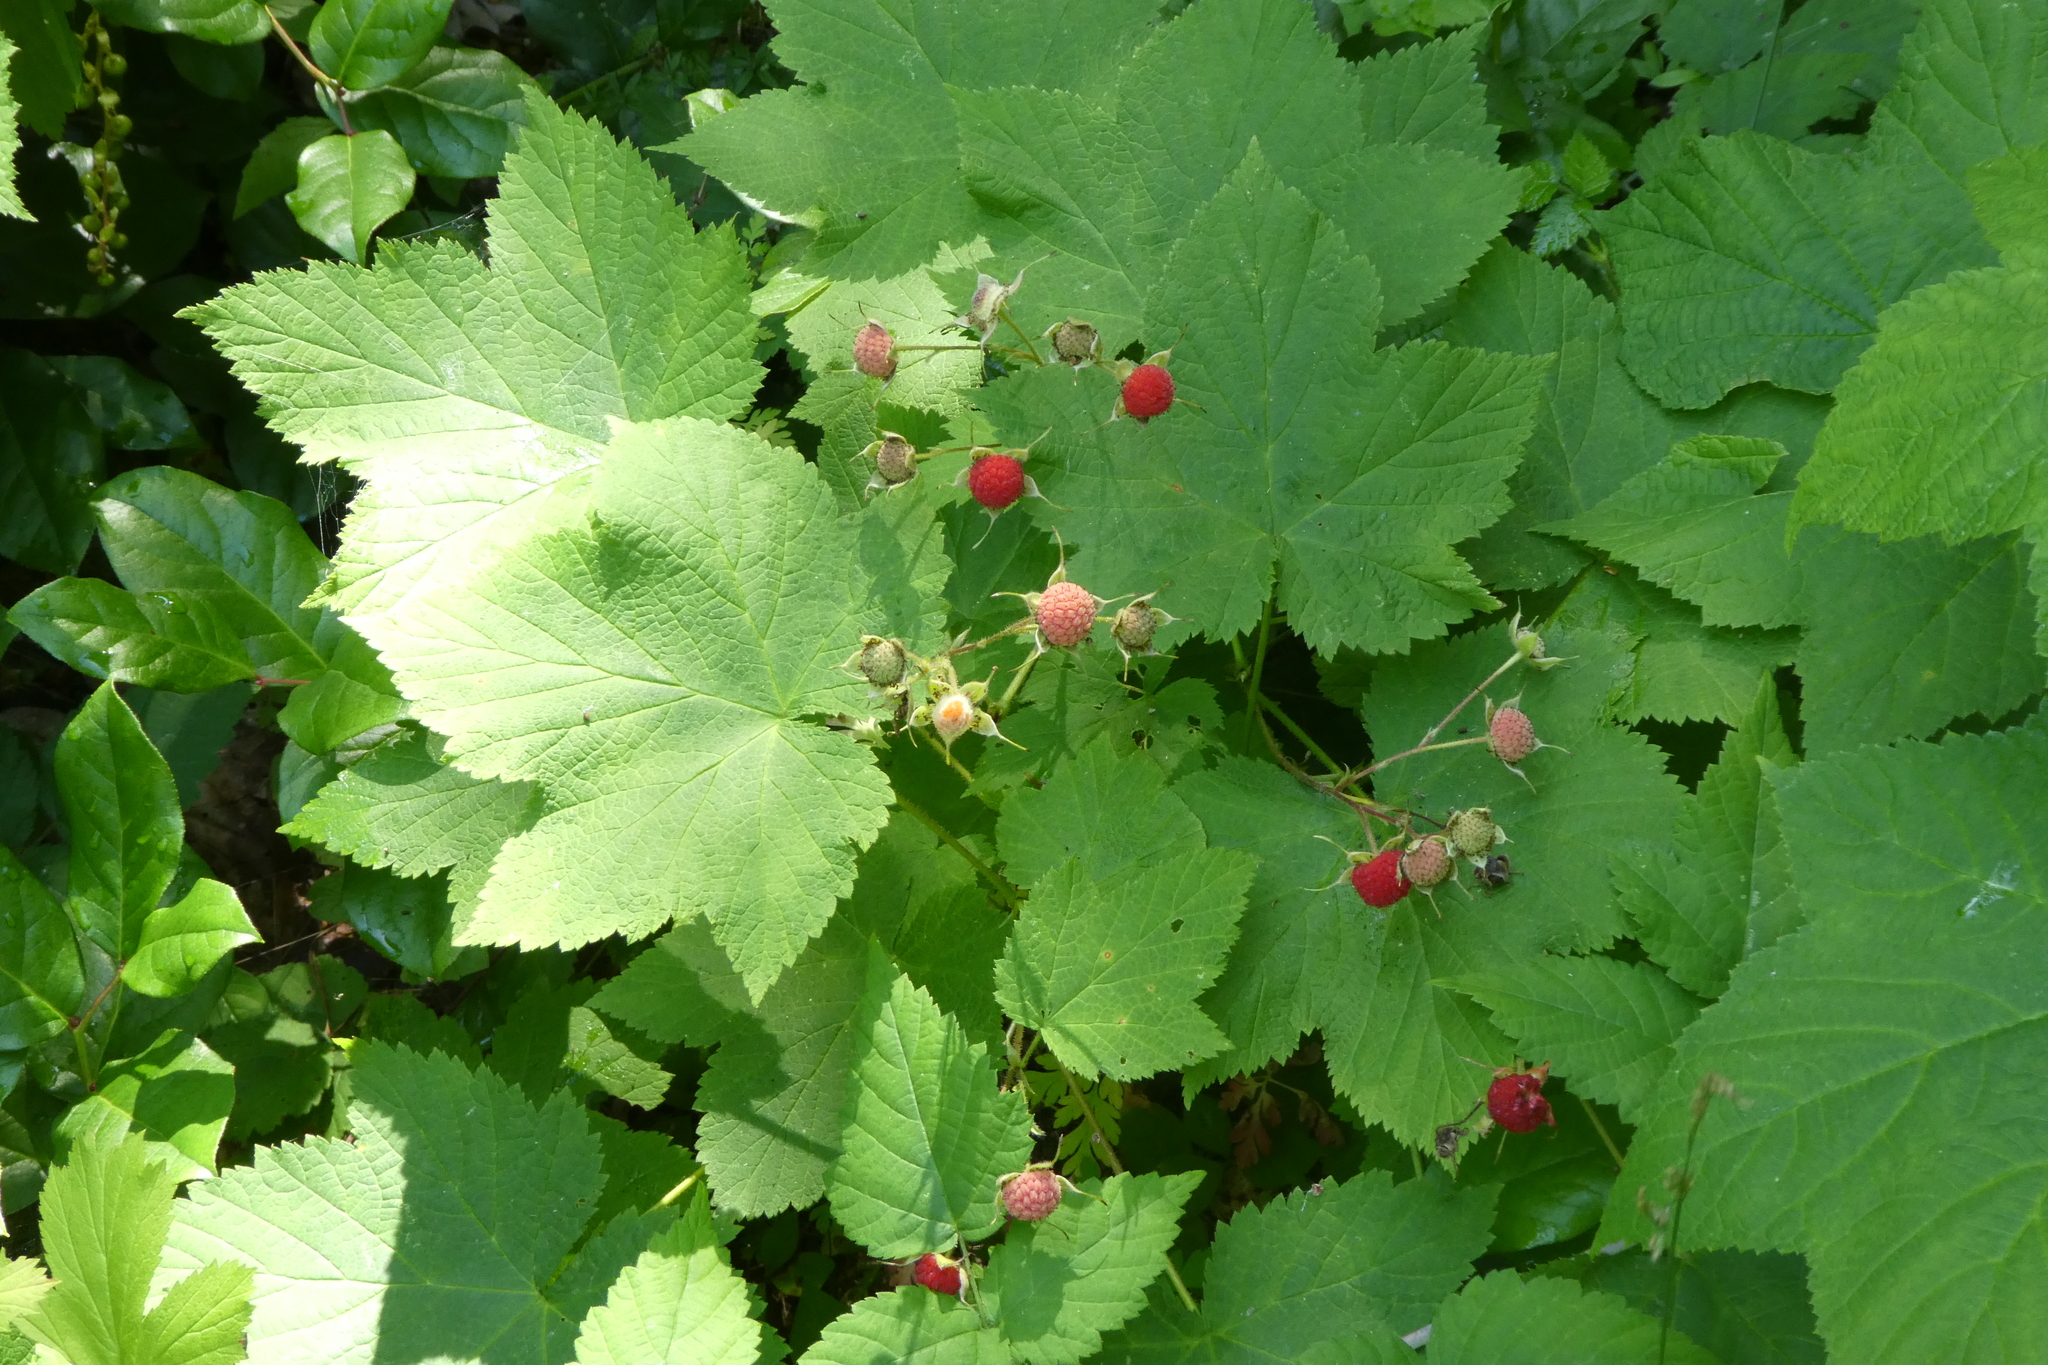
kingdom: Plantae
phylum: Tracheophyta
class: Magnoliopsida
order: Rosales
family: Rosaceae
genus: Rubus
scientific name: Rubus parviflorus
